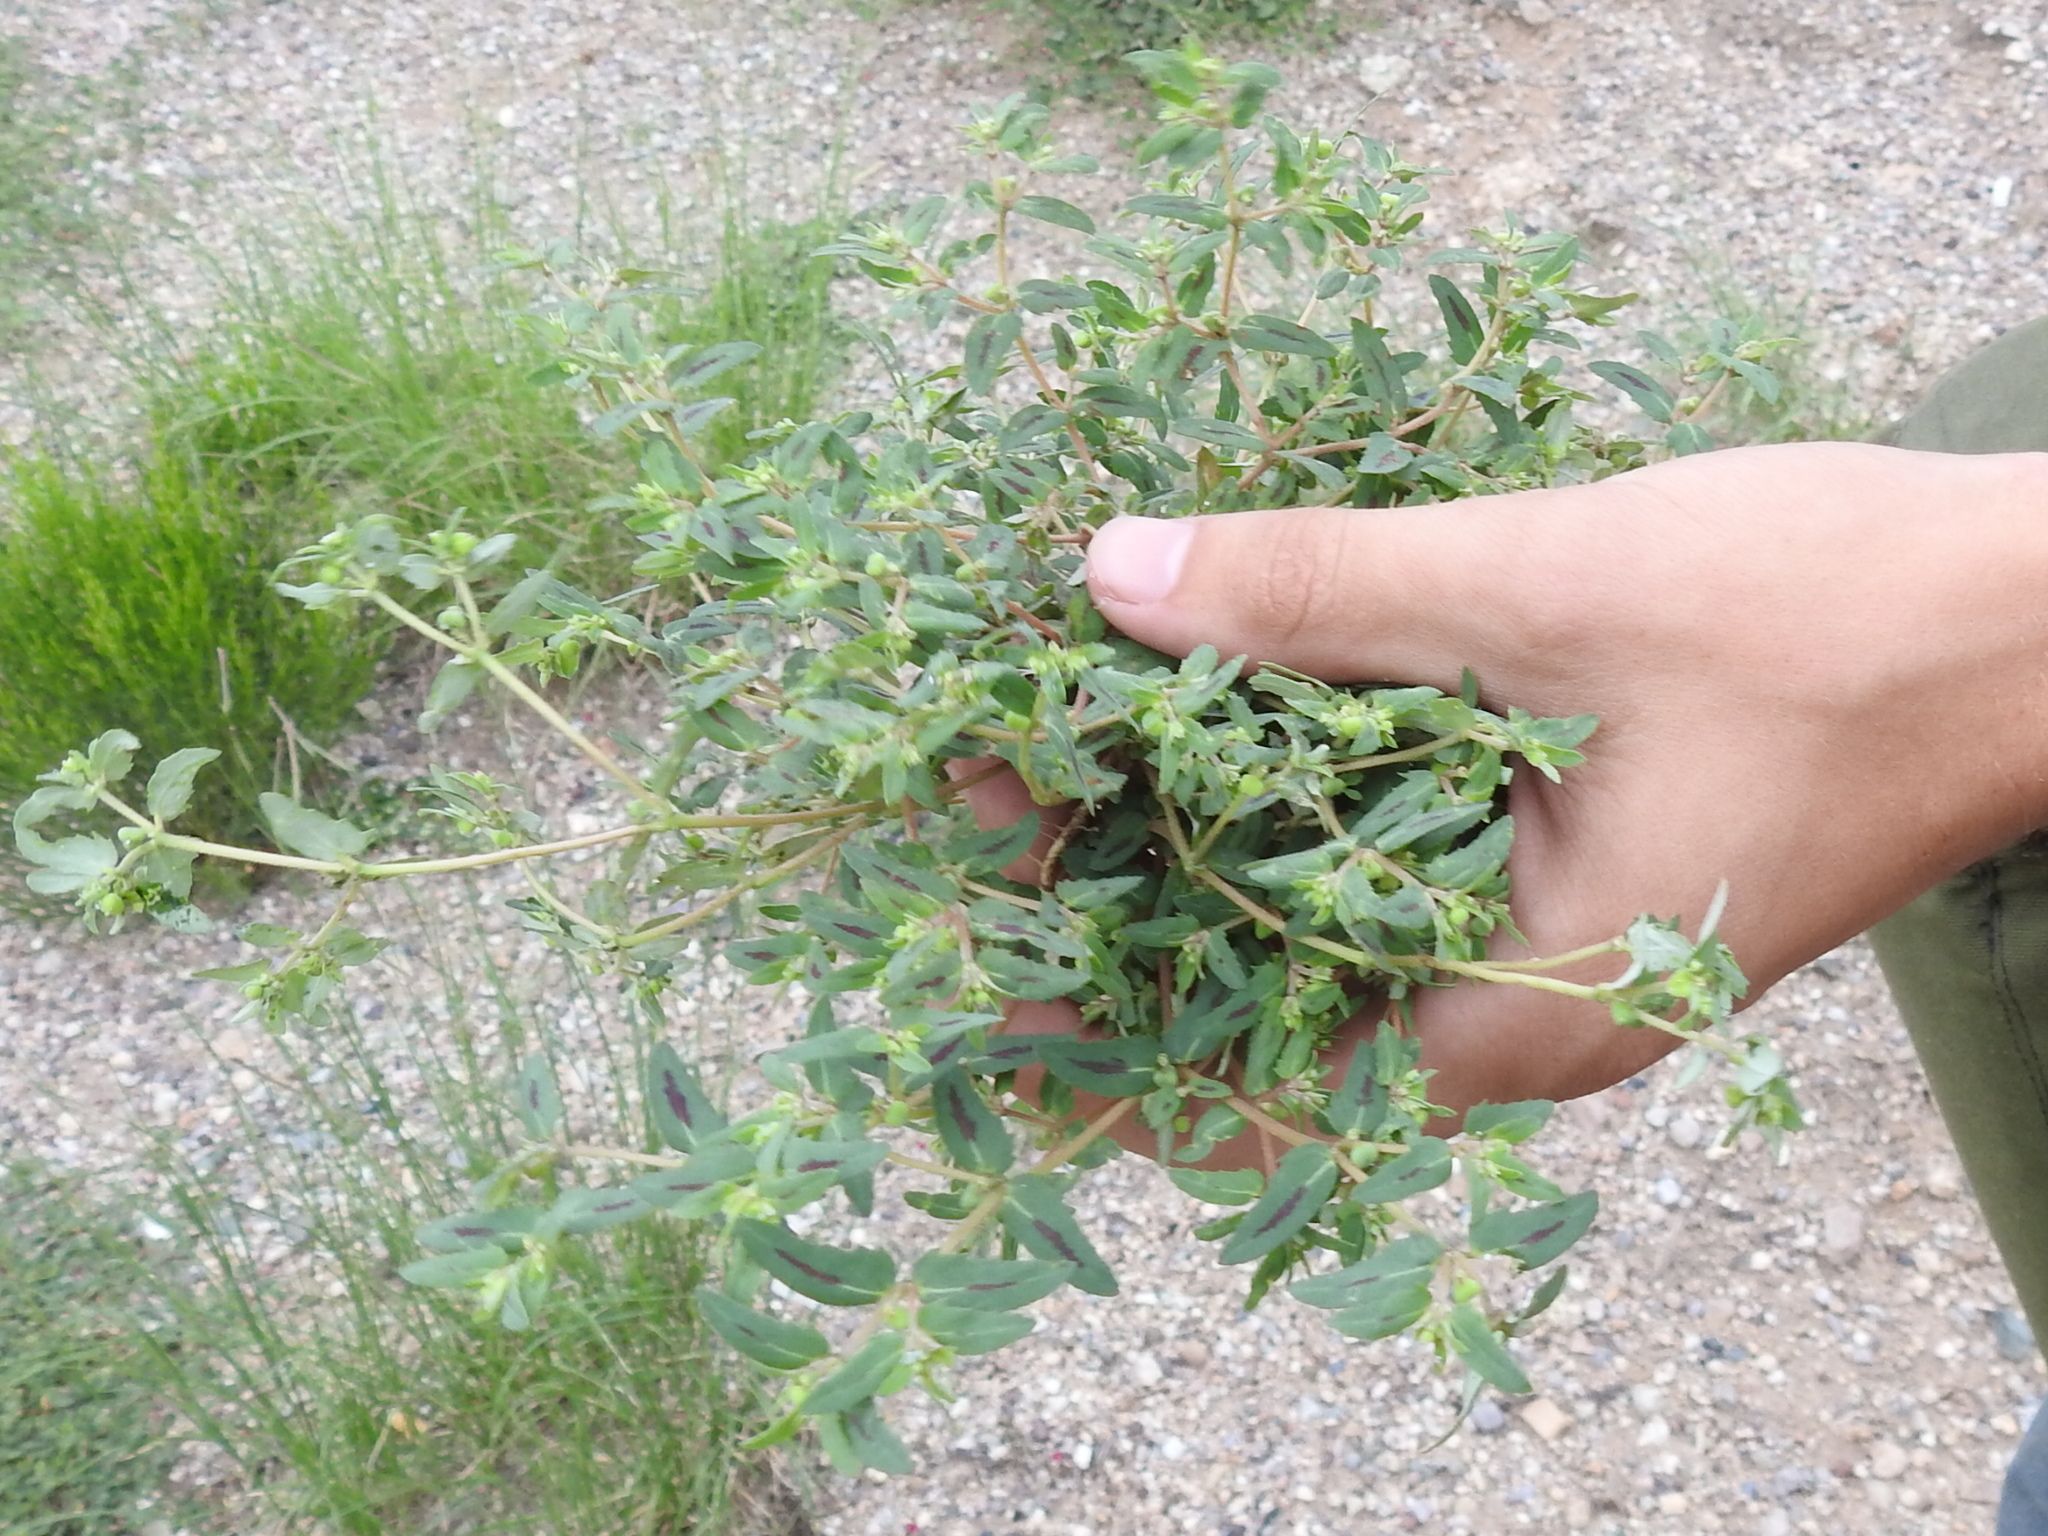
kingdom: Plantae
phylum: Tracheophyta
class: Magnoliopsida
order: Malpighiales
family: Euphorbiaceae
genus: Euphorbia
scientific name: Euphorbia rayturneri
